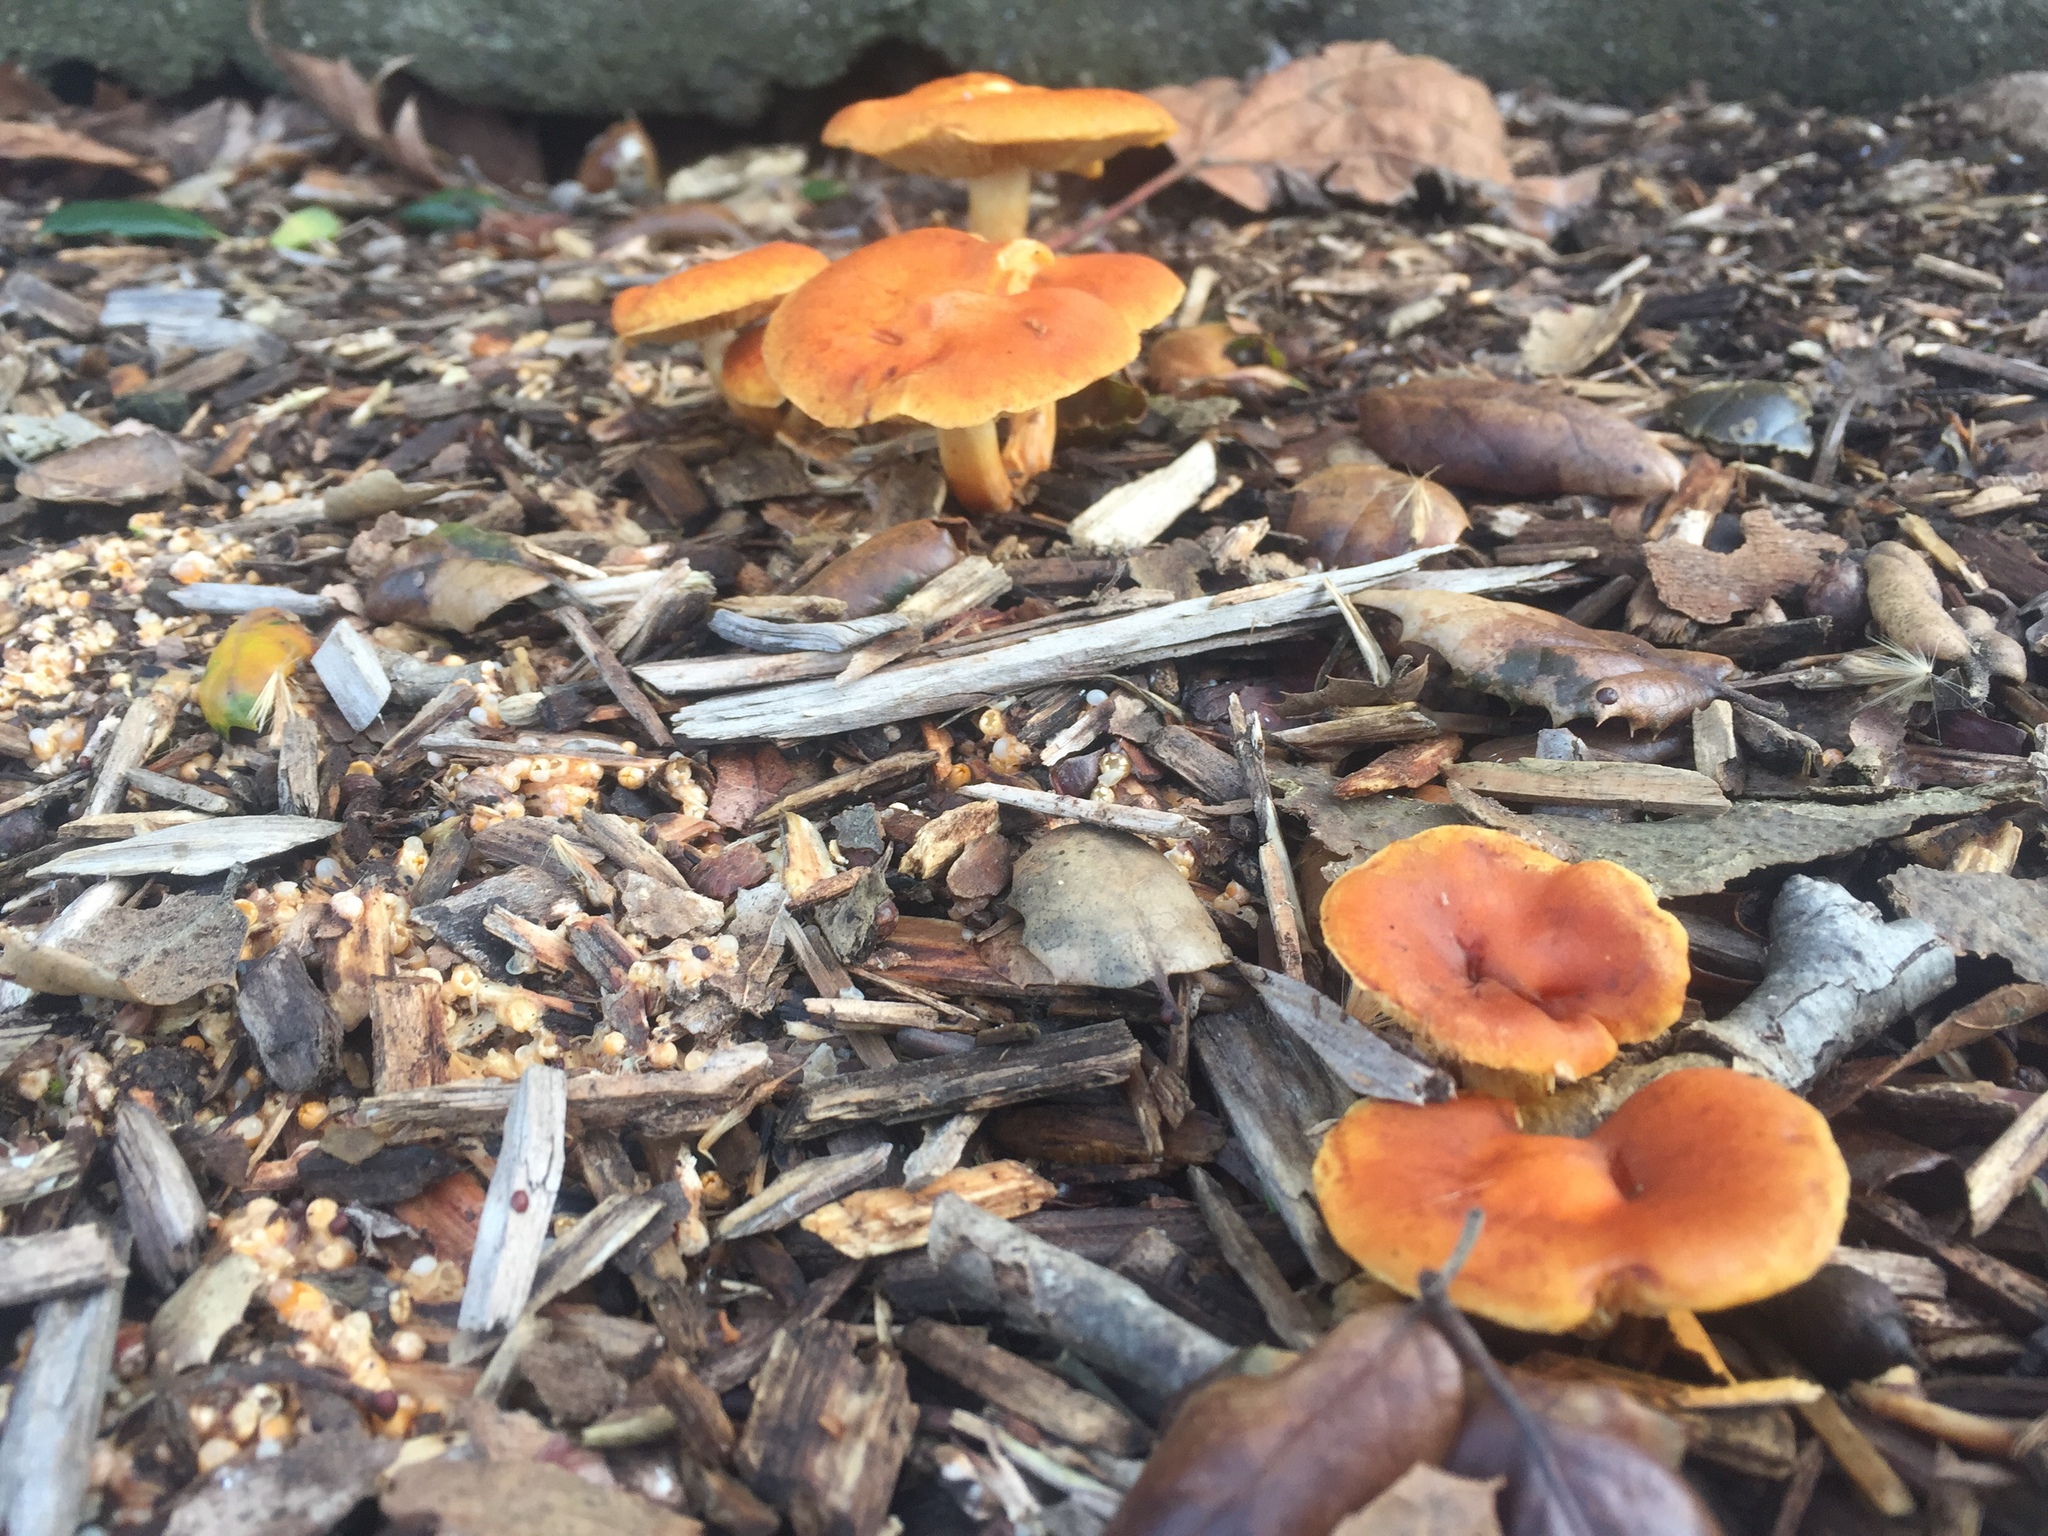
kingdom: Fungi
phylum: Basidiomycota
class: Agaricomycetes
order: Agaricales
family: Hymenogastraceae
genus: Gymnopilus
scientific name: Gymnopilus aurantiophyllus
